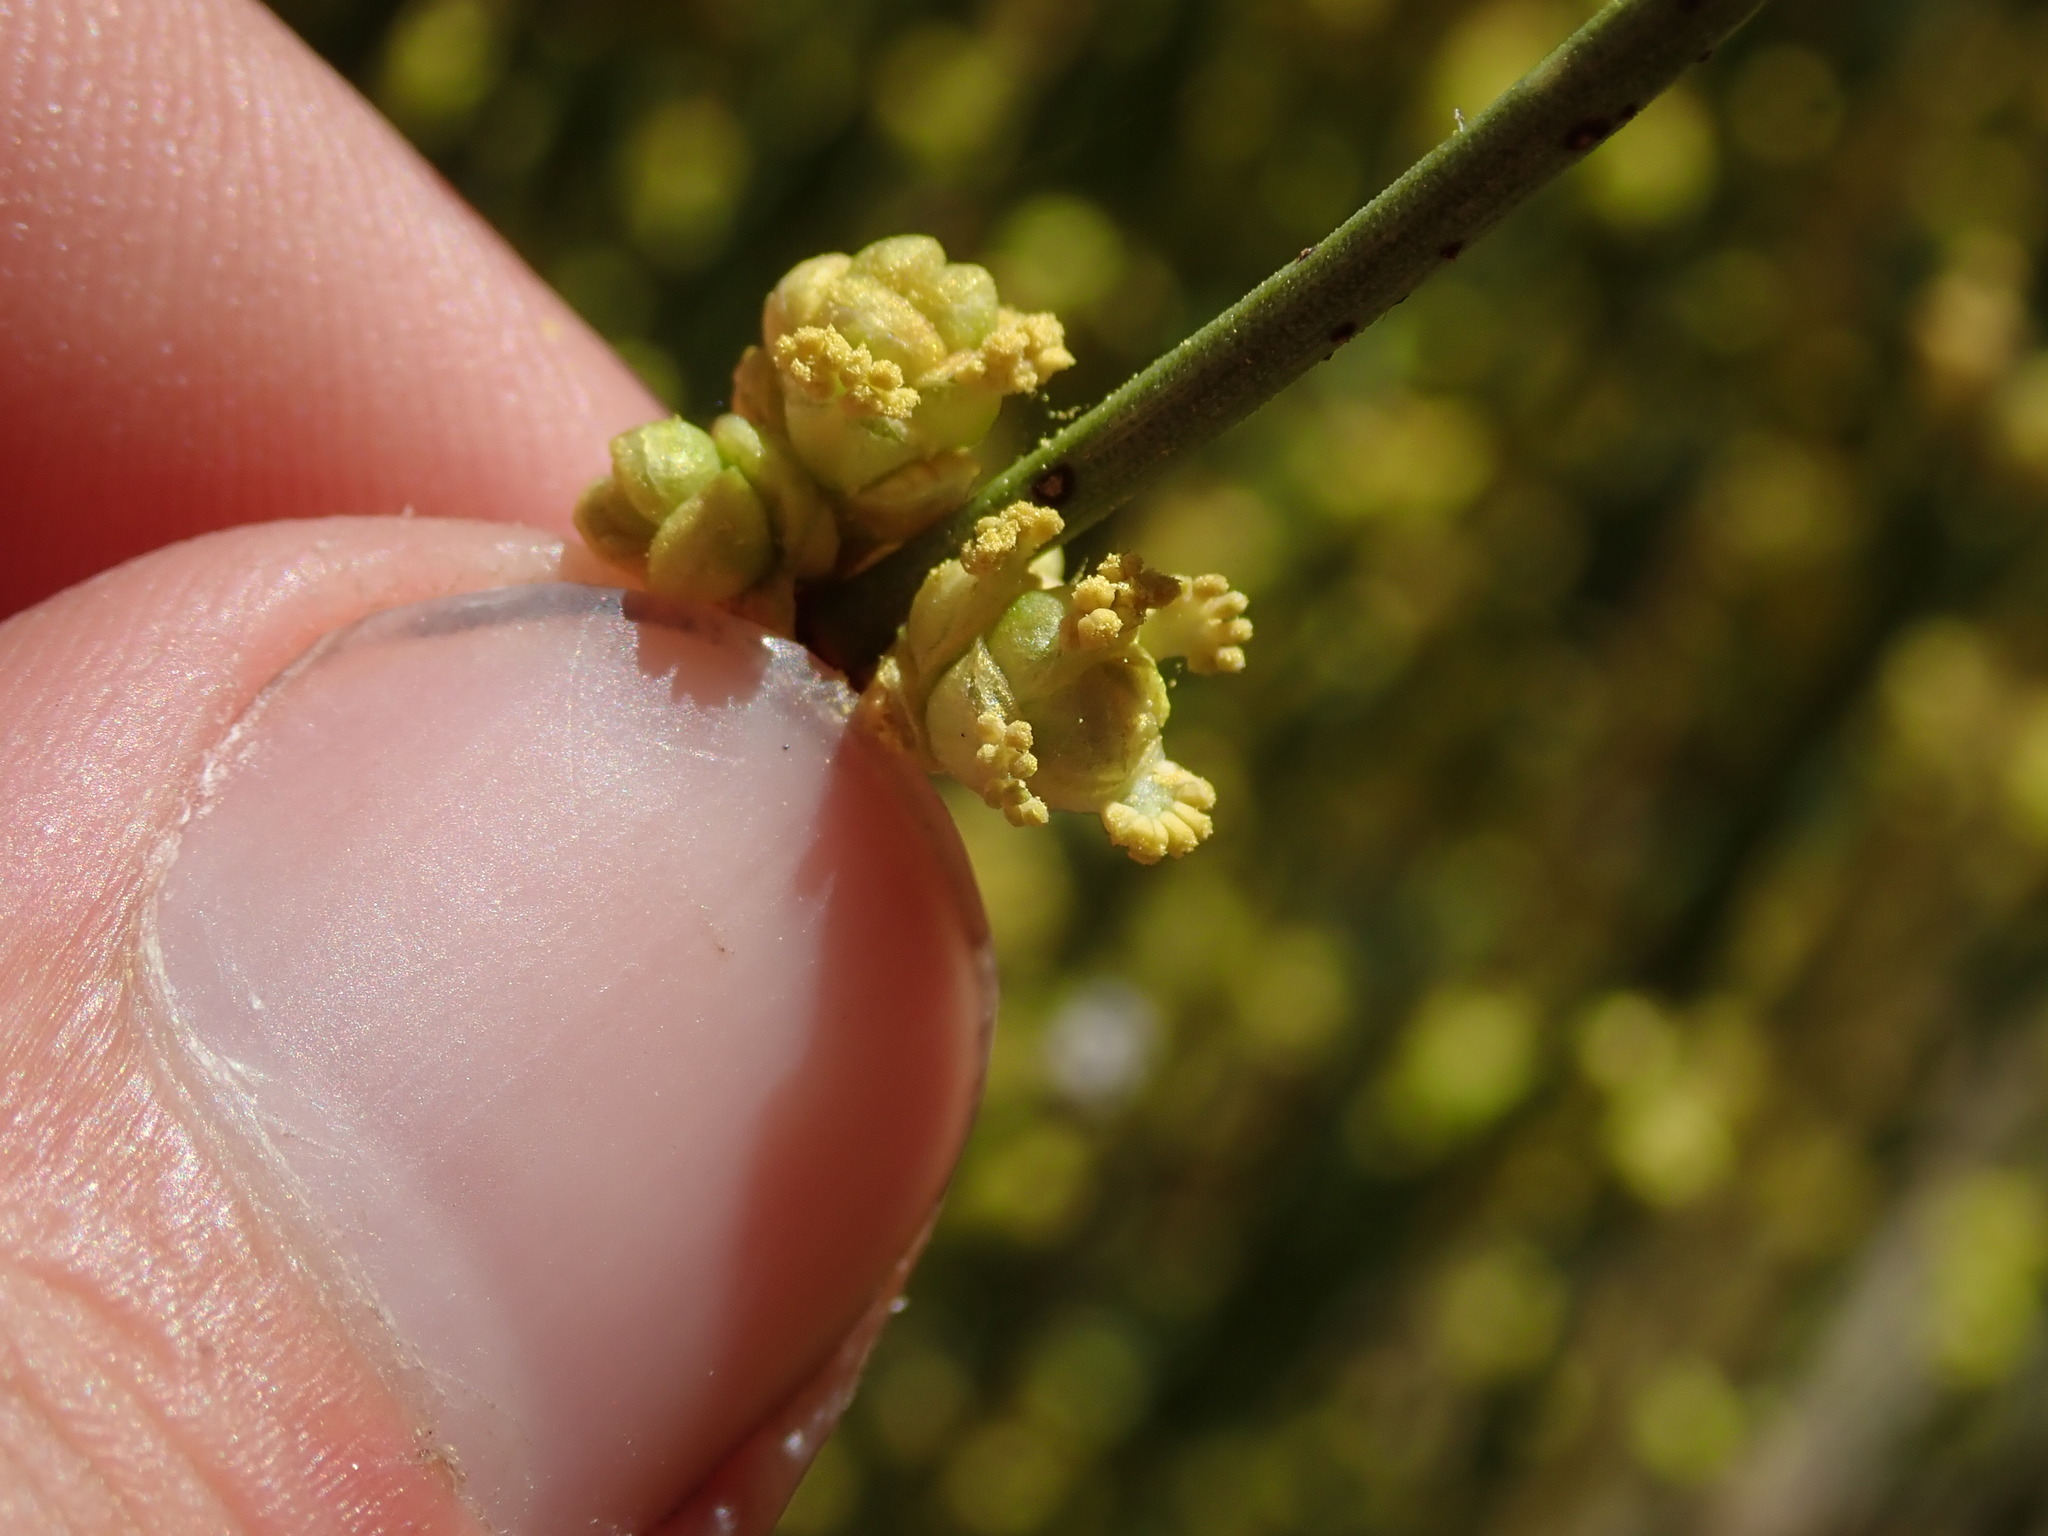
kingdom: Plantae
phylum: Tracheophyta
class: Gnetopsida
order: Ephedrales
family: Ephedraceae
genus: Ephedra
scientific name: Ephedra viridis
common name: Green ephedra
